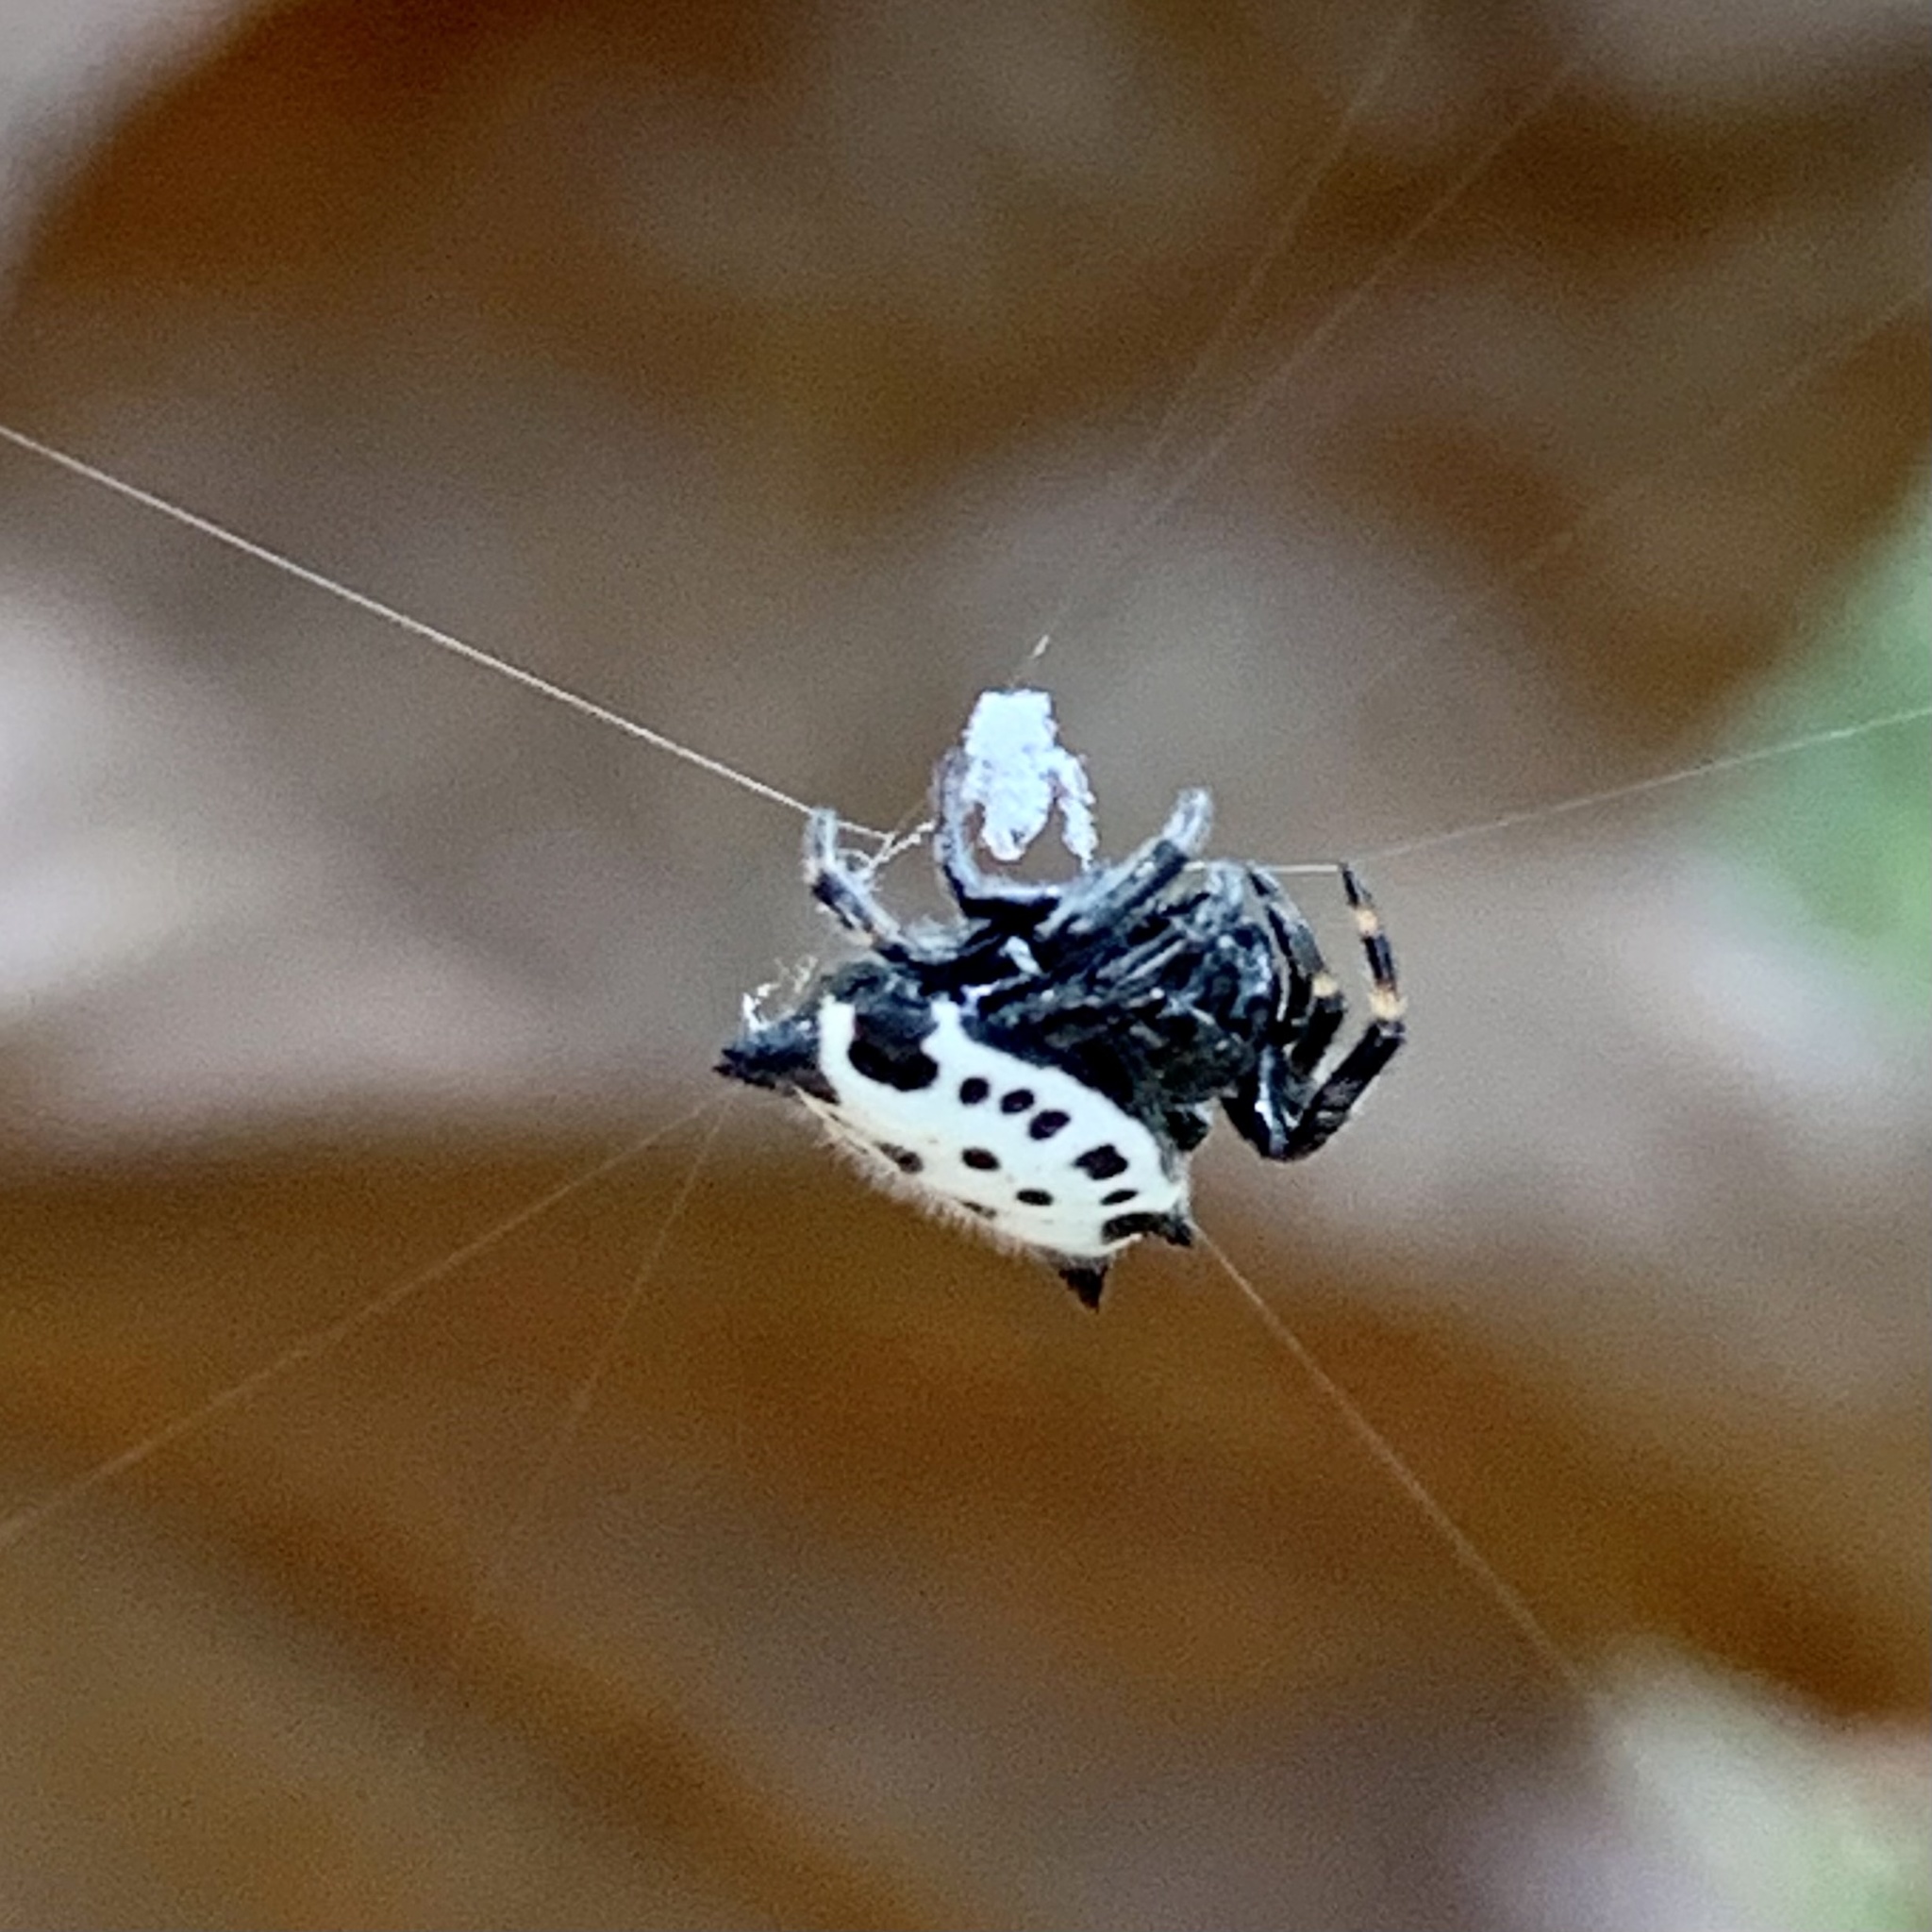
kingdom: Animalia
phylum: Arthropoda
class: Arachnida
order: Araneae
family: Araneidae
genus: Gasteracantha
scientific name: Gasteracantha cancriformis
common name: Orb weavers
